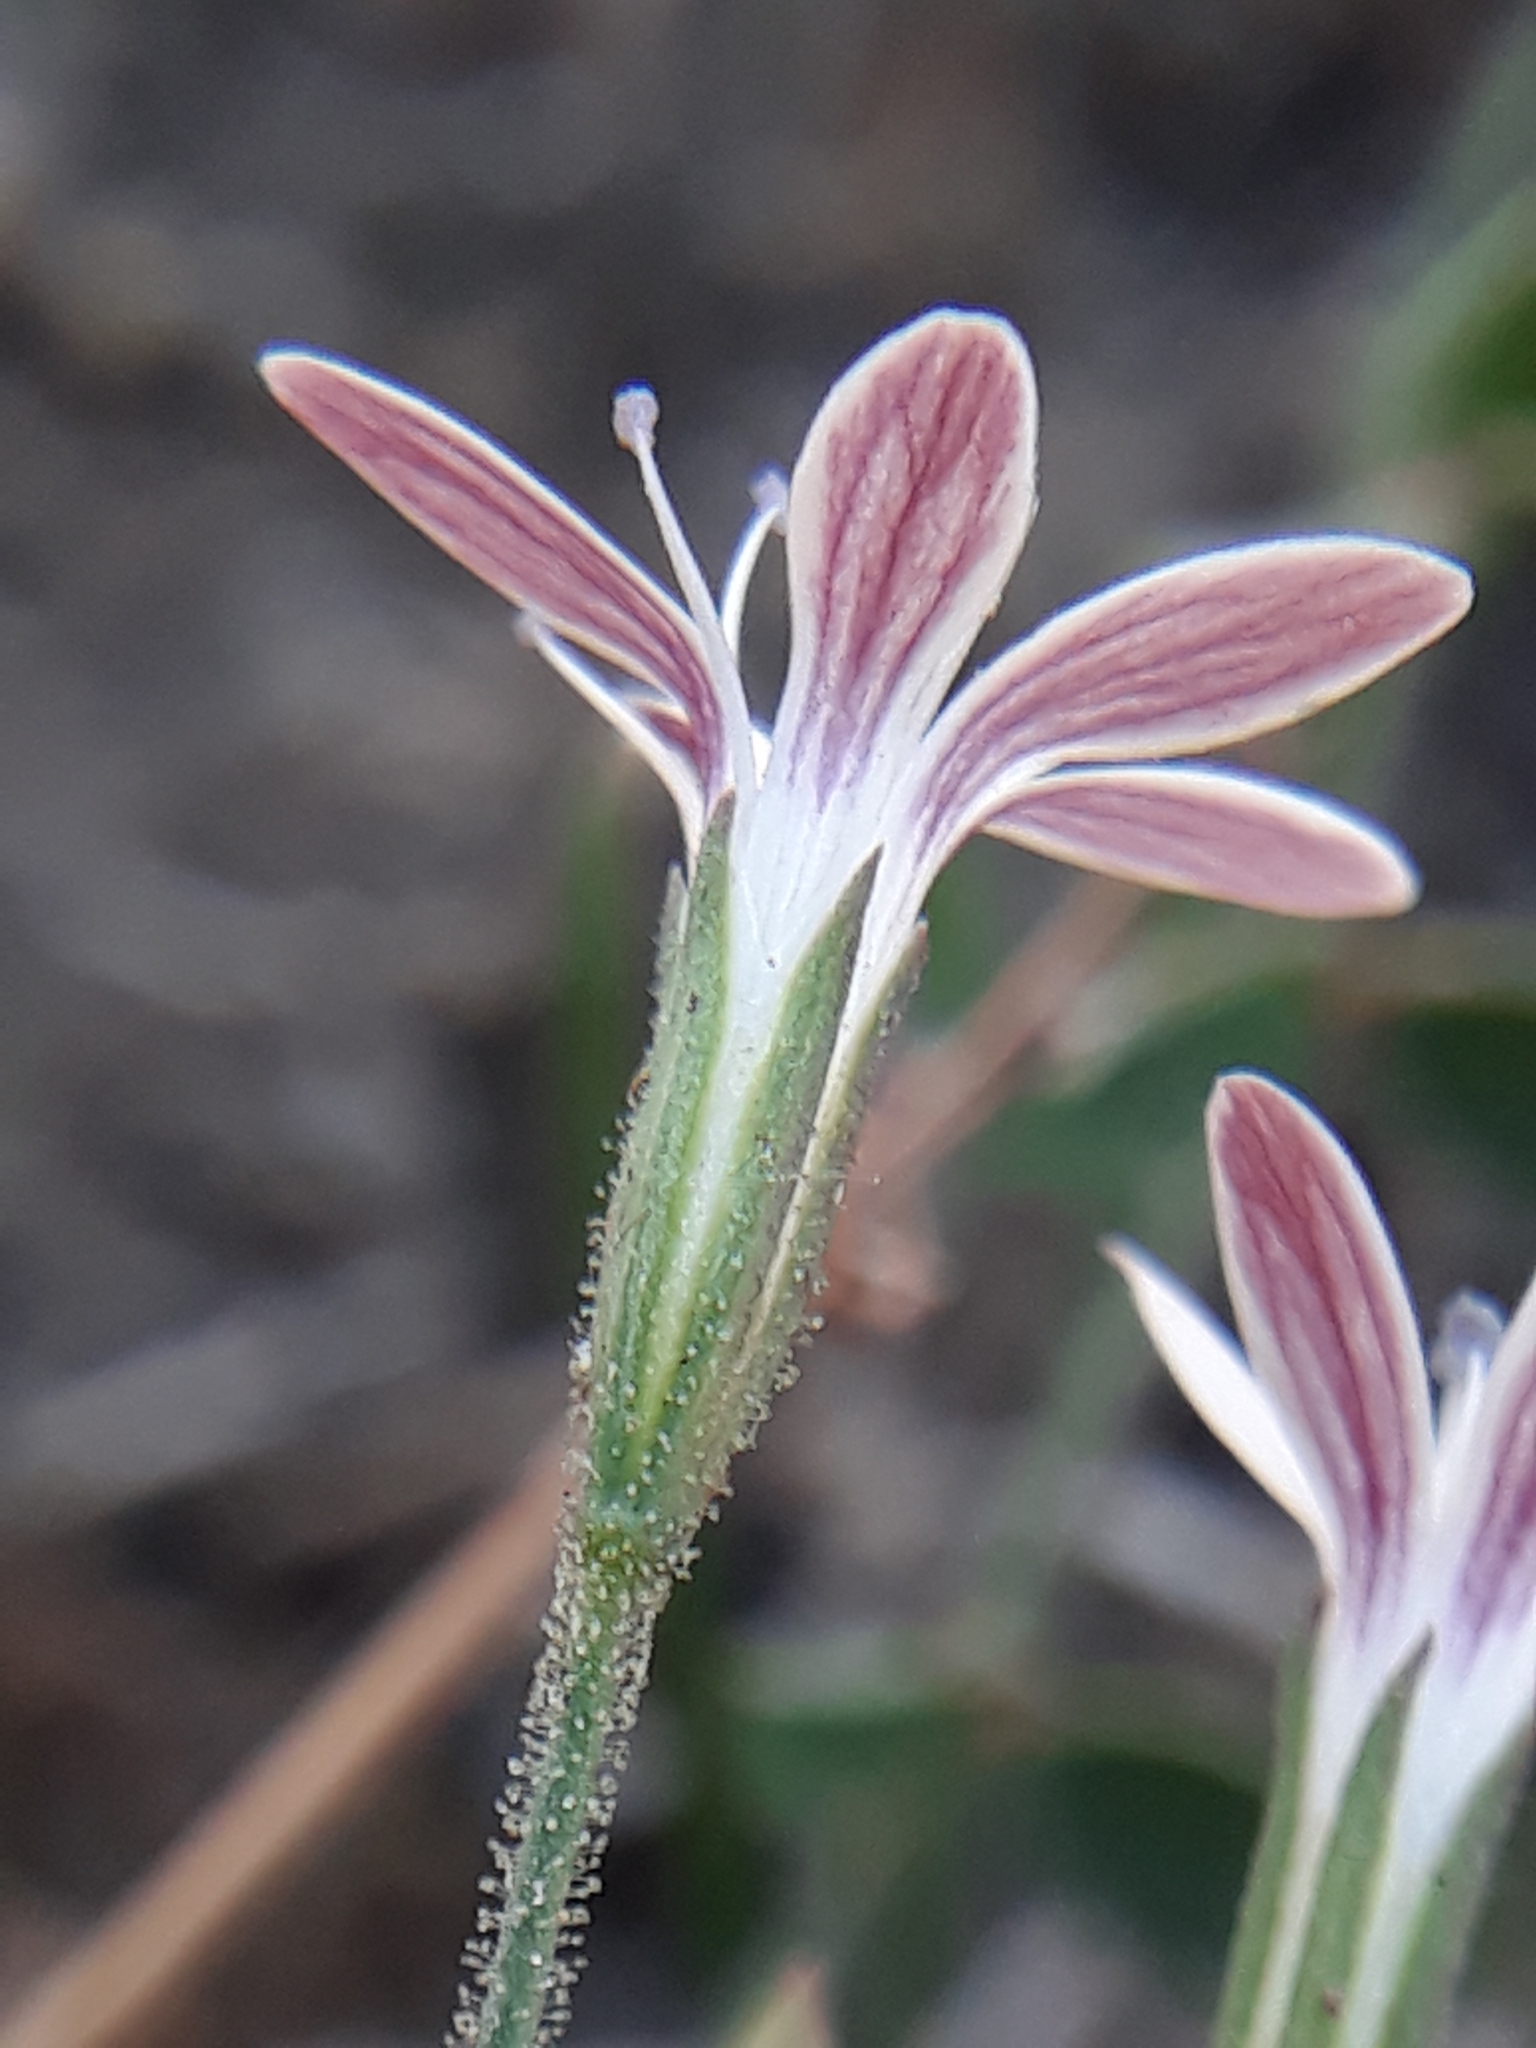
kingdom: Plantae
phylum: Tracheophyta
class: Magnoliopsida
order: Caryophyllales
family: Caryophyllaceae
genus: Dianthus
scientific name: Dianthus illyricus
